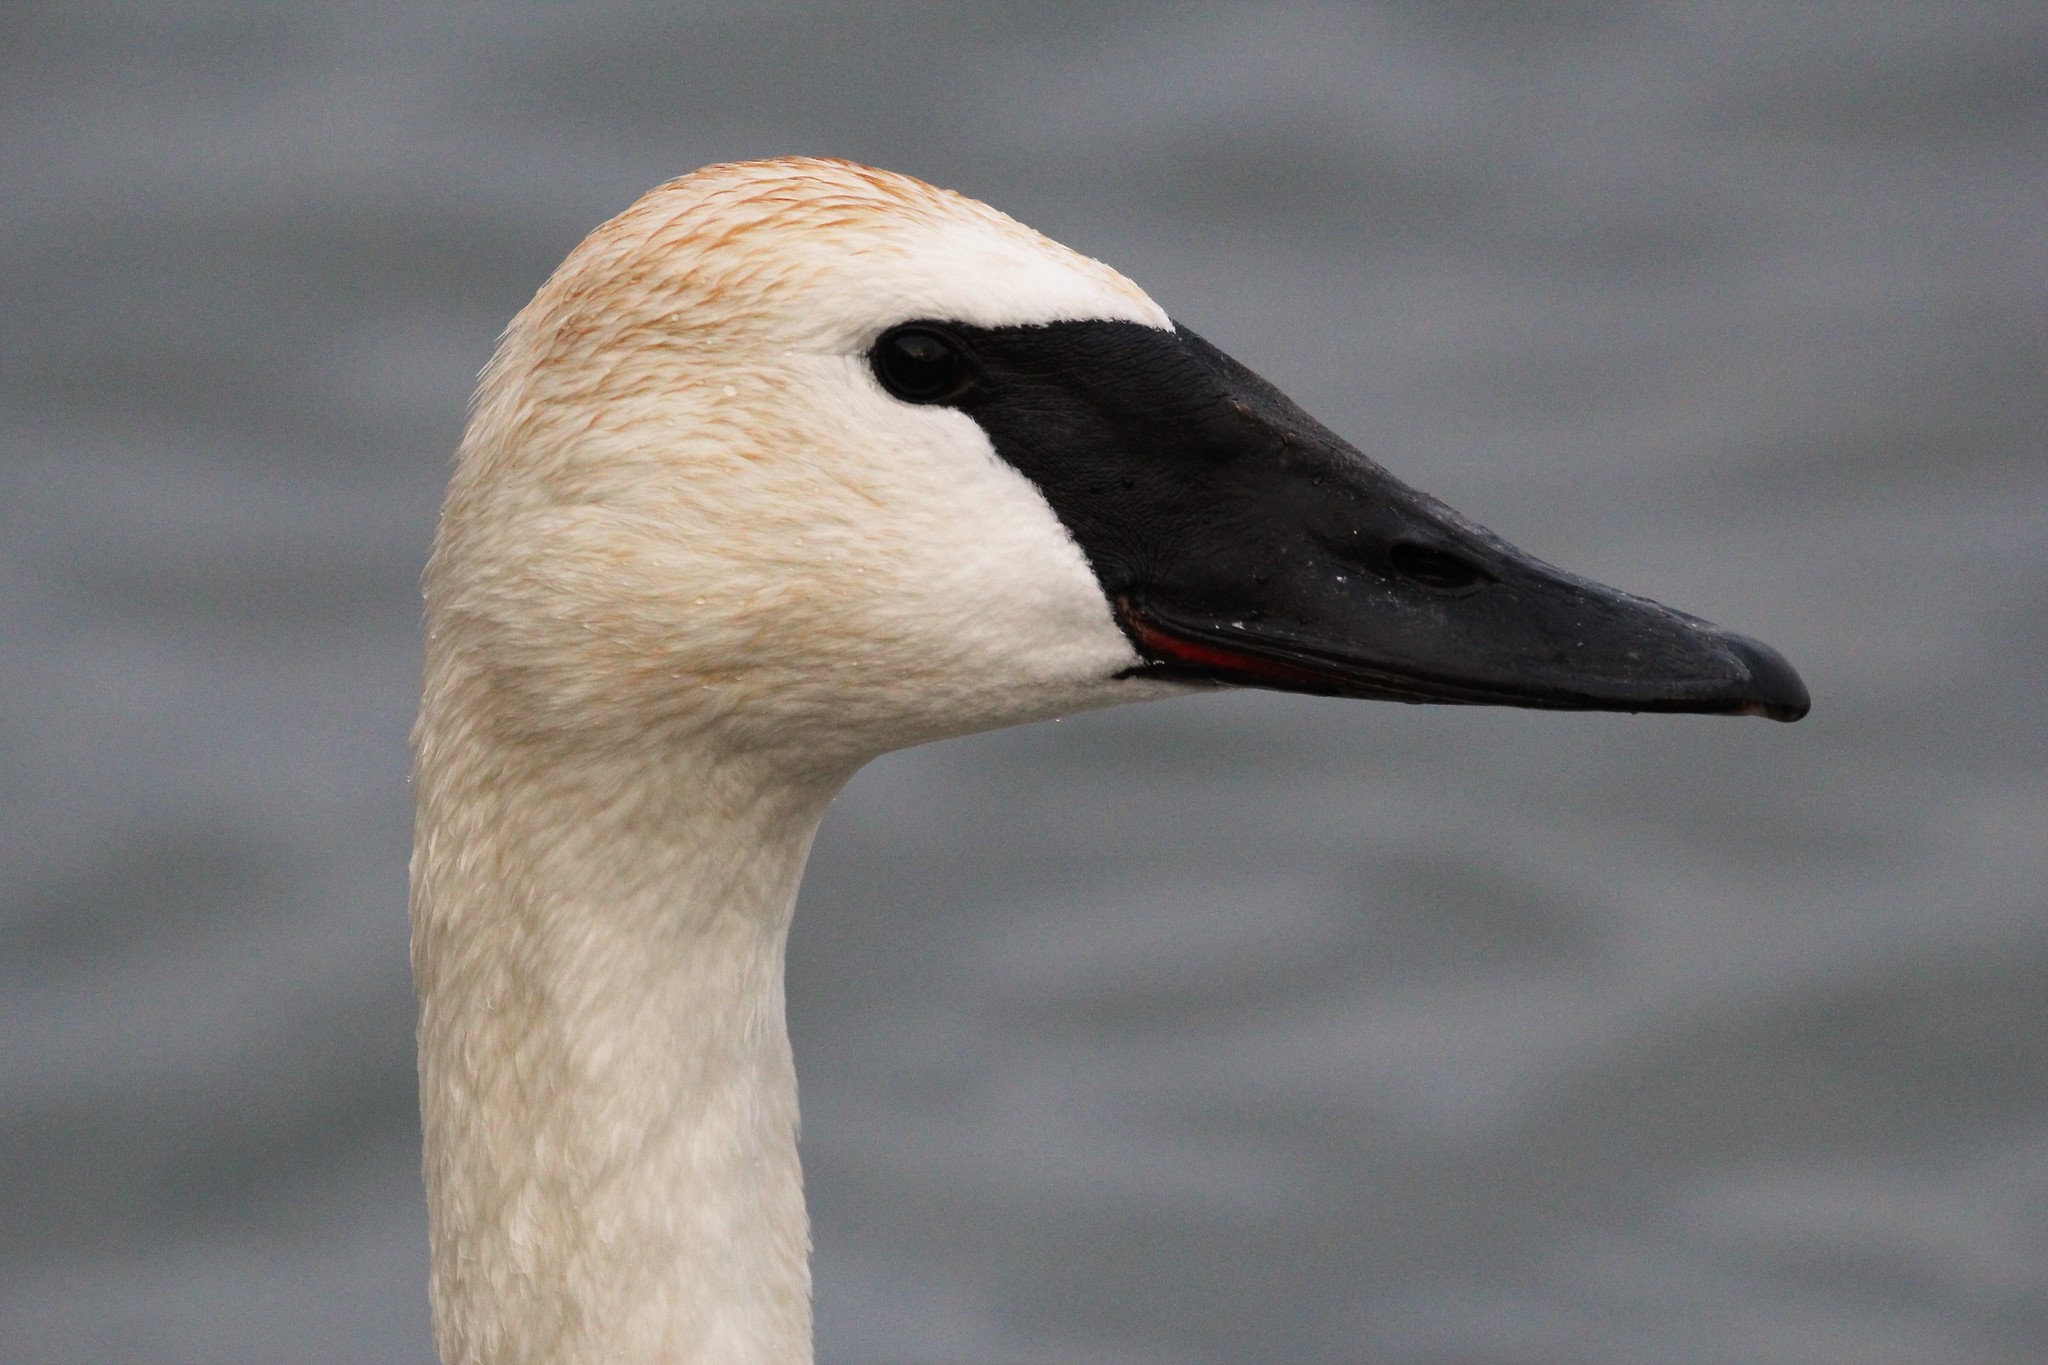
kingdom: Animalia
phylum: Chordata
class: Aves
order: Anseriformes
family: Anatidae
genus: Cygnus
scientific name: Cygnus buccinator
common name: Trumpeter swan
